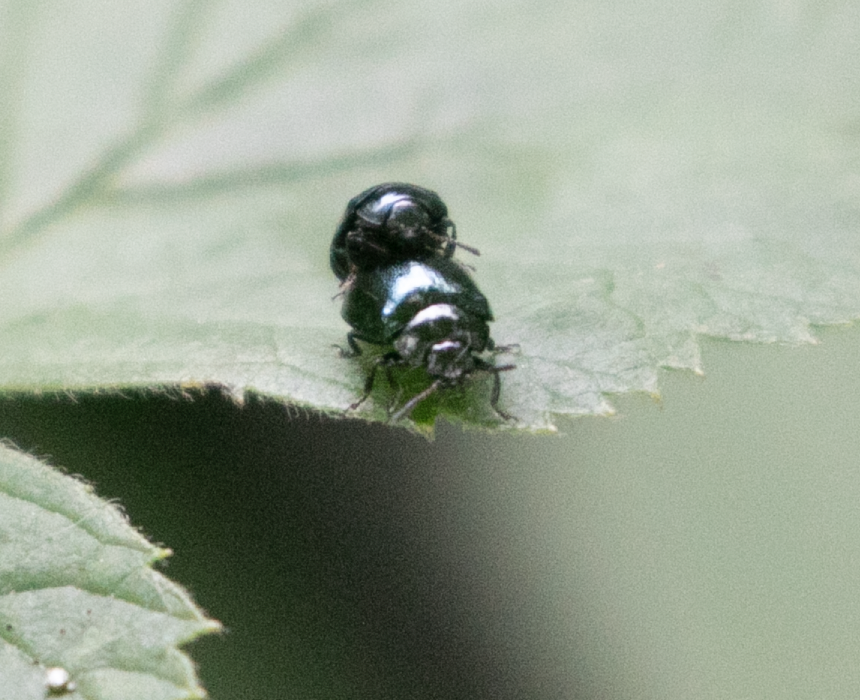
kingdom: Animalia
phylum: Arthropoda
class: Insecta
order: Coleoptera
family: Chrysomelidae
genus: Plagiodera
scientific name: Plagiodera versicolora
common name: Imported willow leaf beetle
